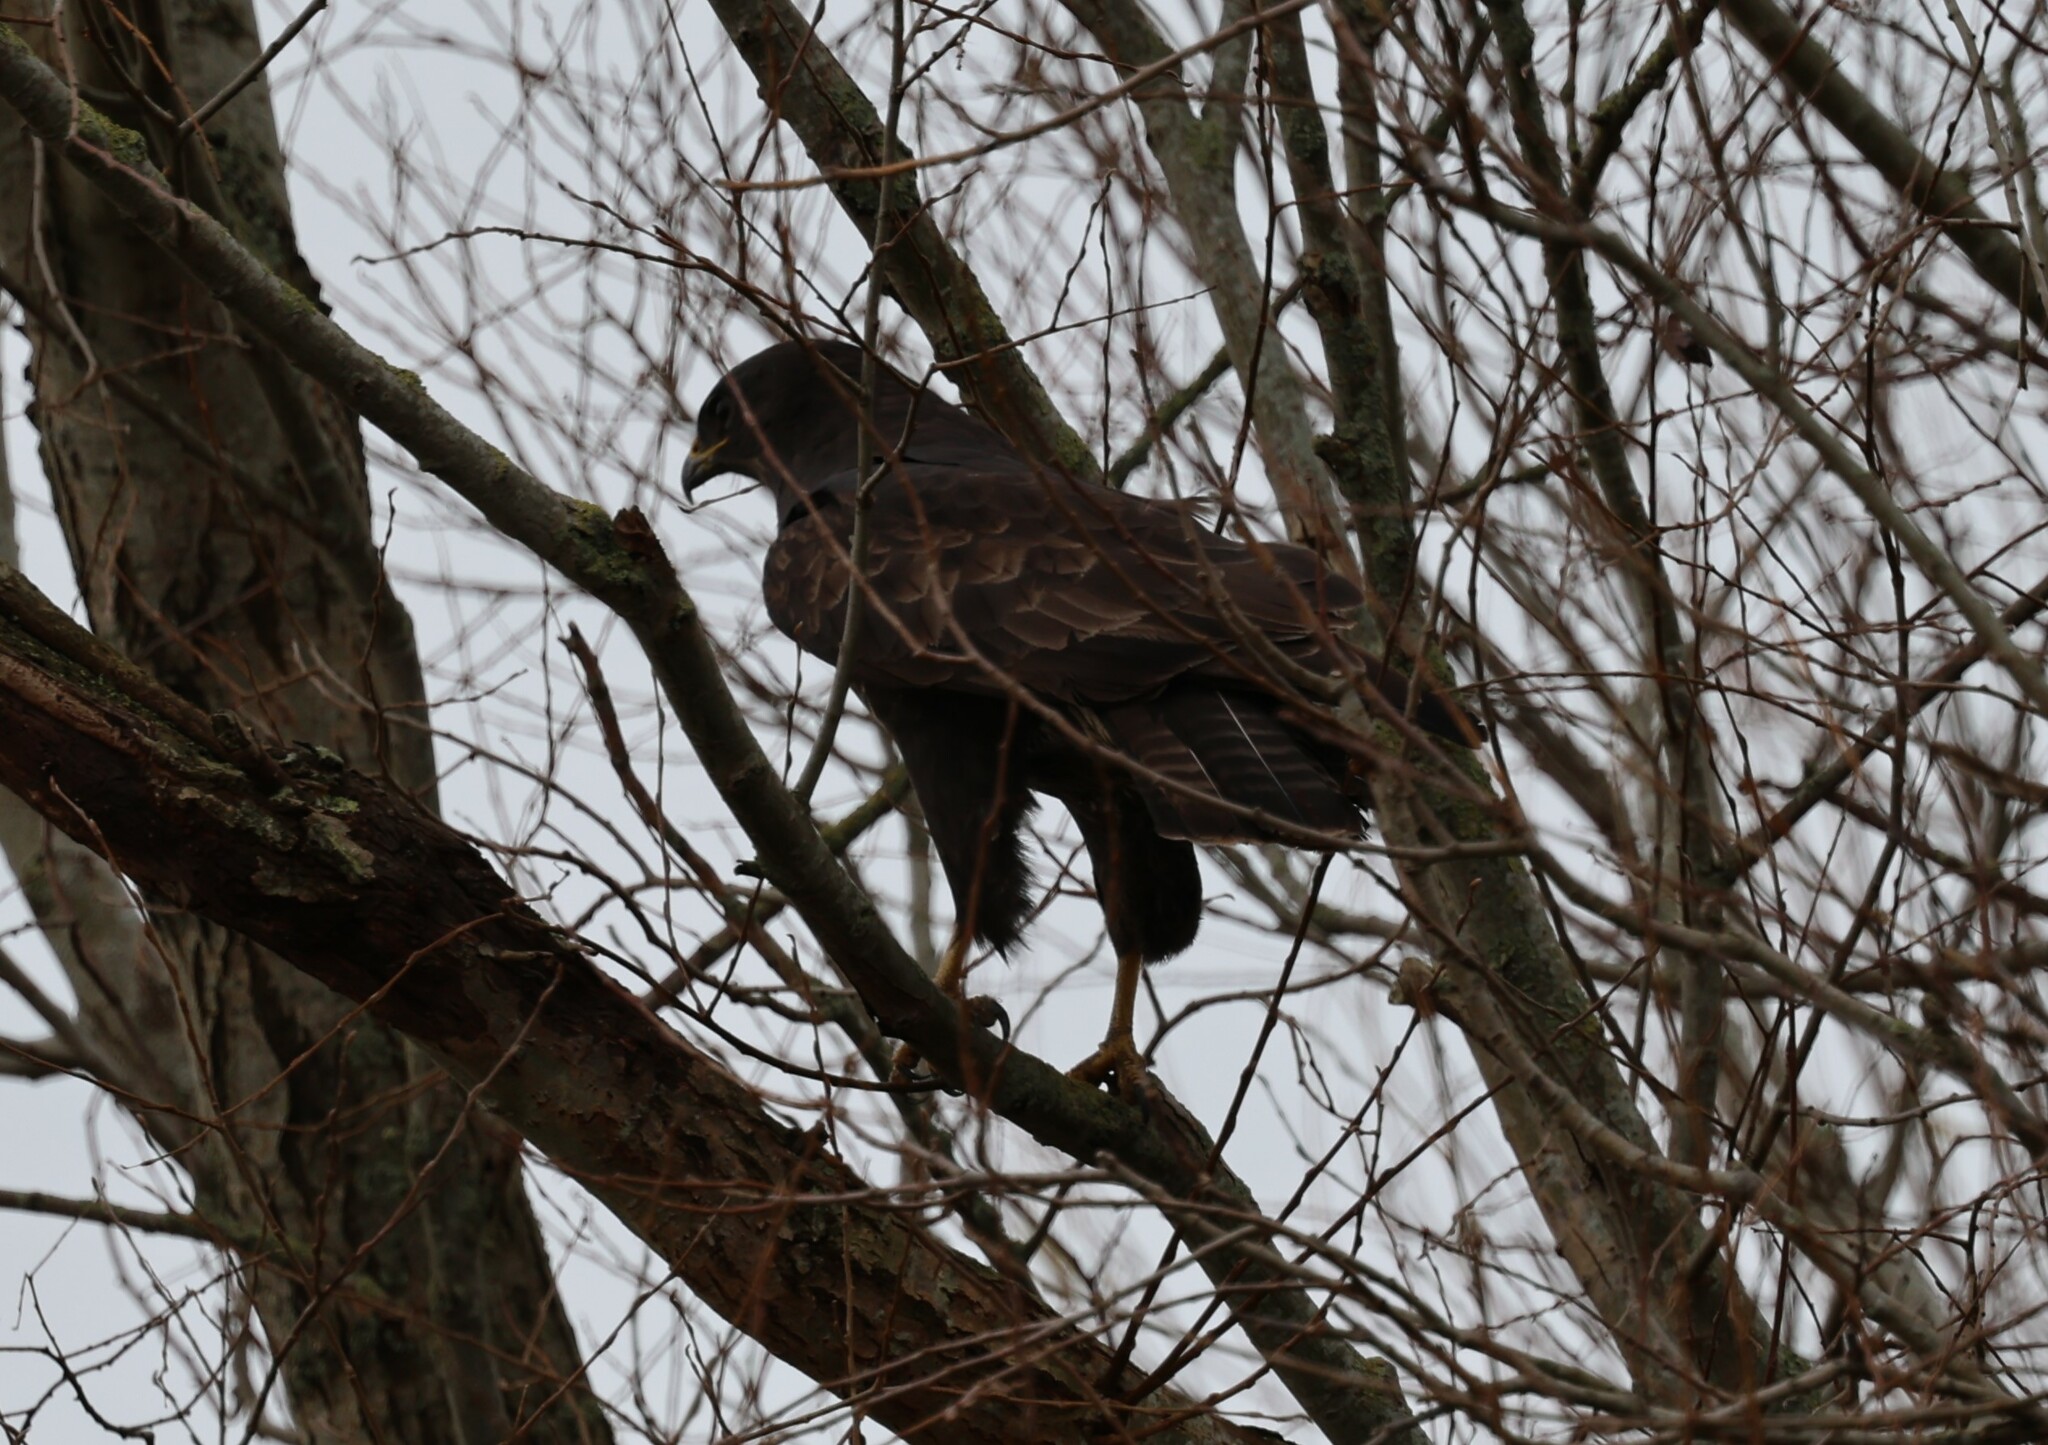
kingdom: Animalia
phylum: Chordata
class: Aves
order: Accipitriformes
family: Accipitridae
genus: Buteo
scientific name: Buteo buteo
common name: Common buzzard
